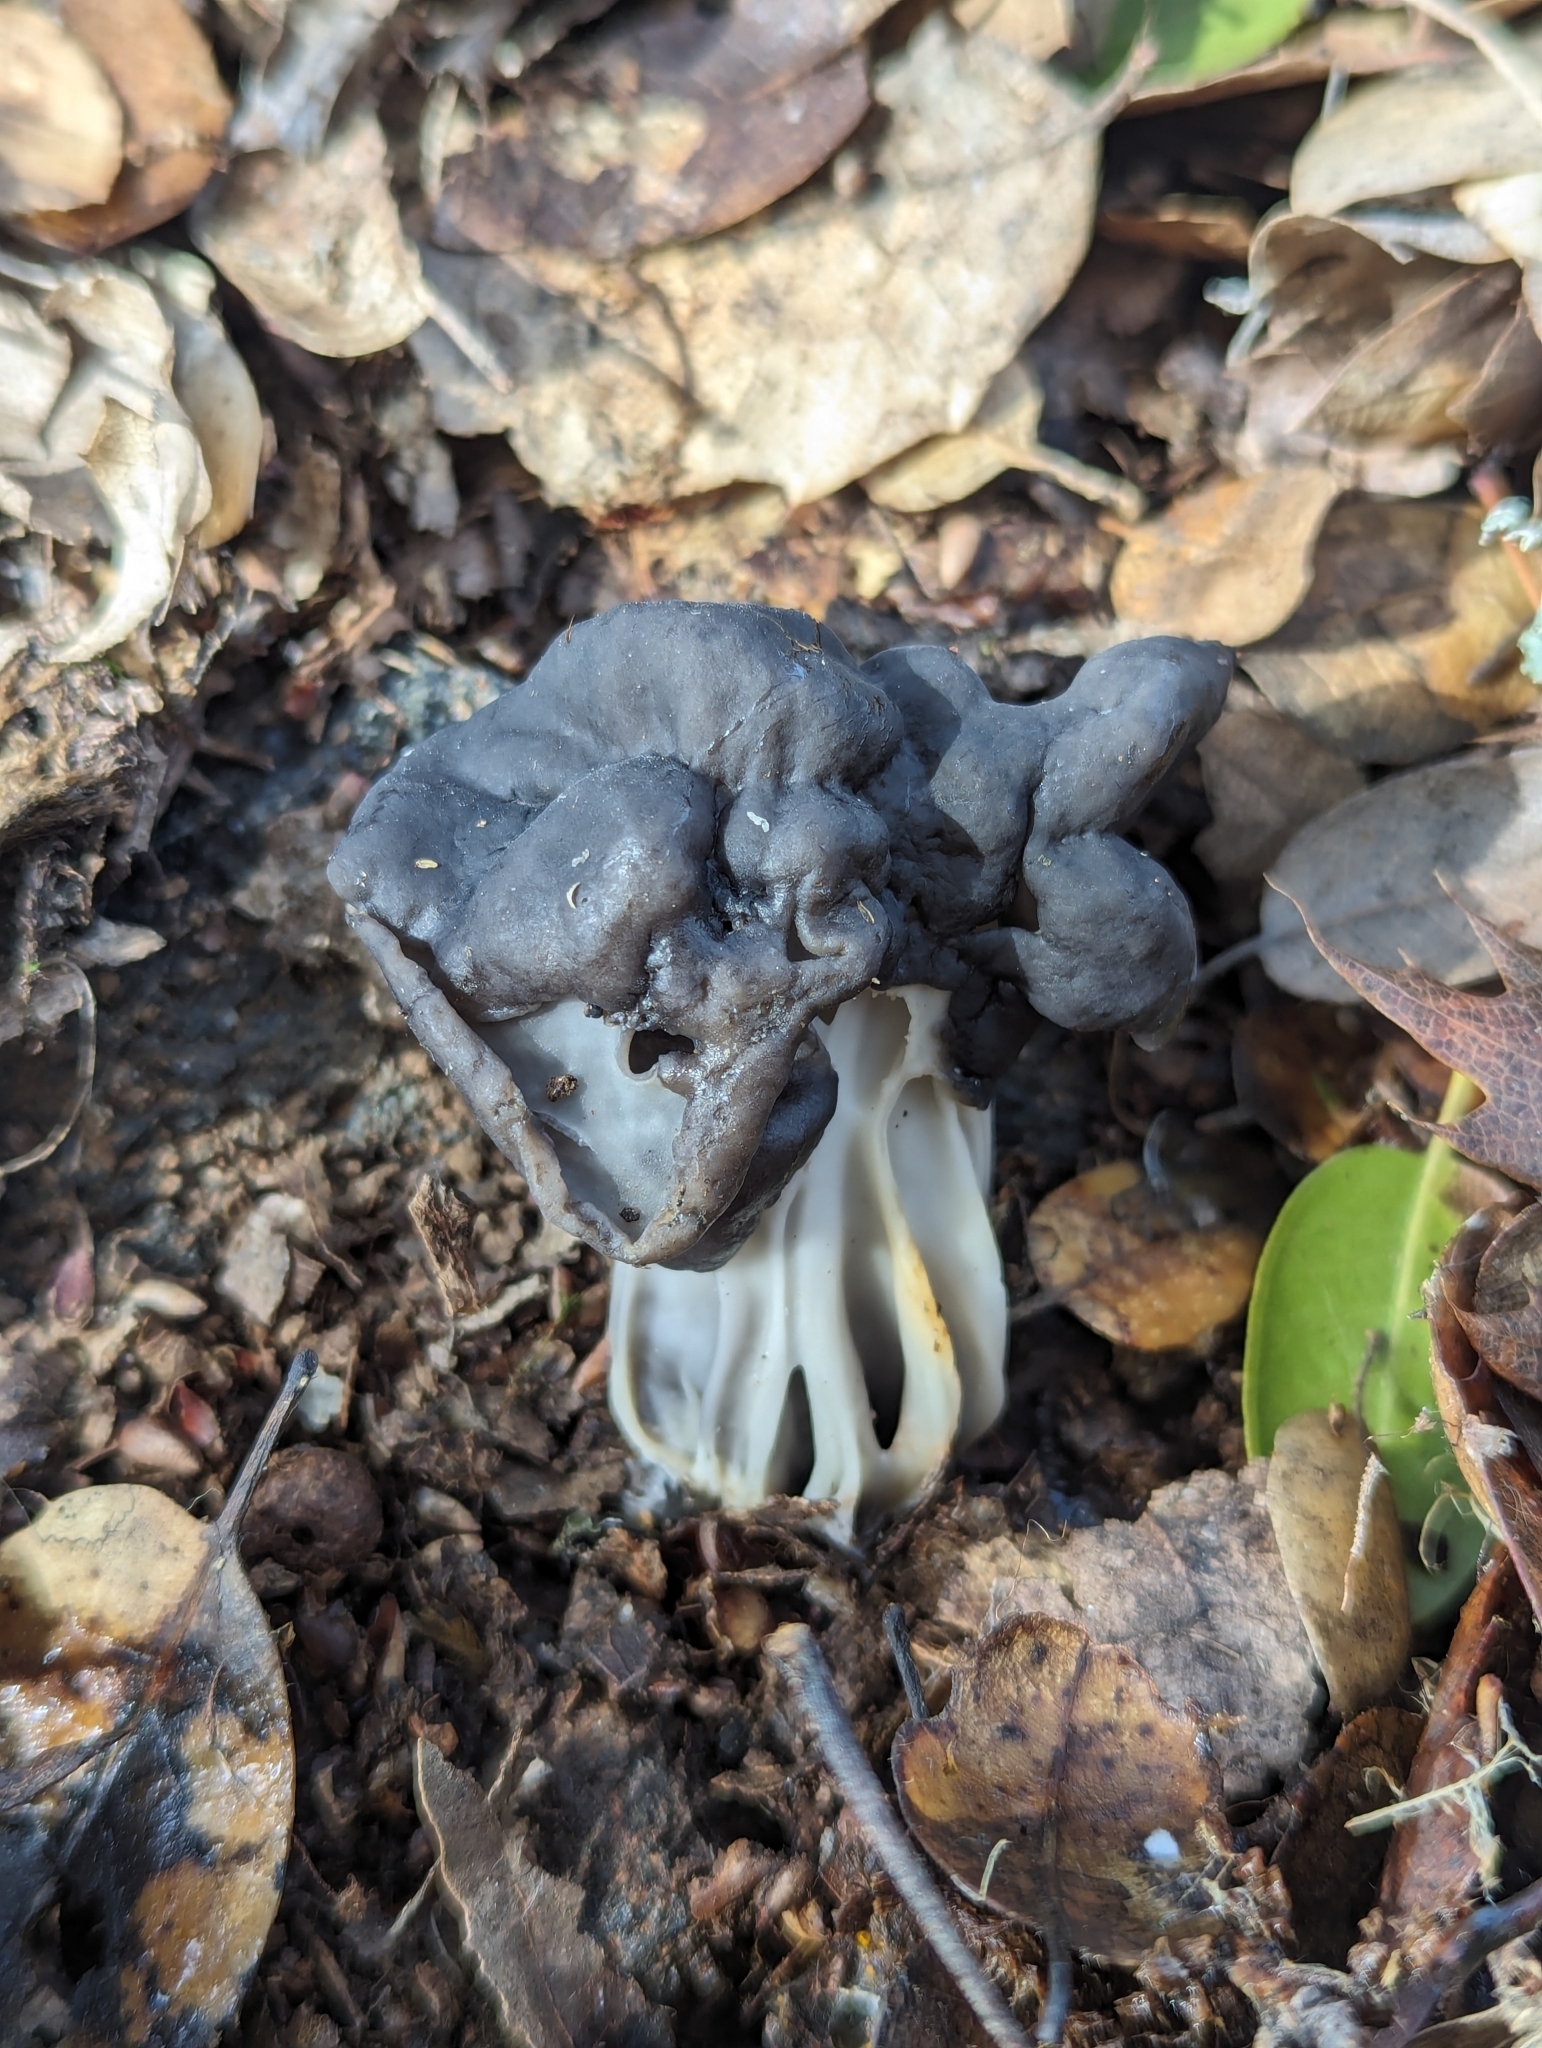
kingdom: Fungi
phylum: Ascomycota
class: Pezizomycetes
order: Pezizales
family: Helvellaceae
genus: Helvella
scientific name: Helvella dryophila
